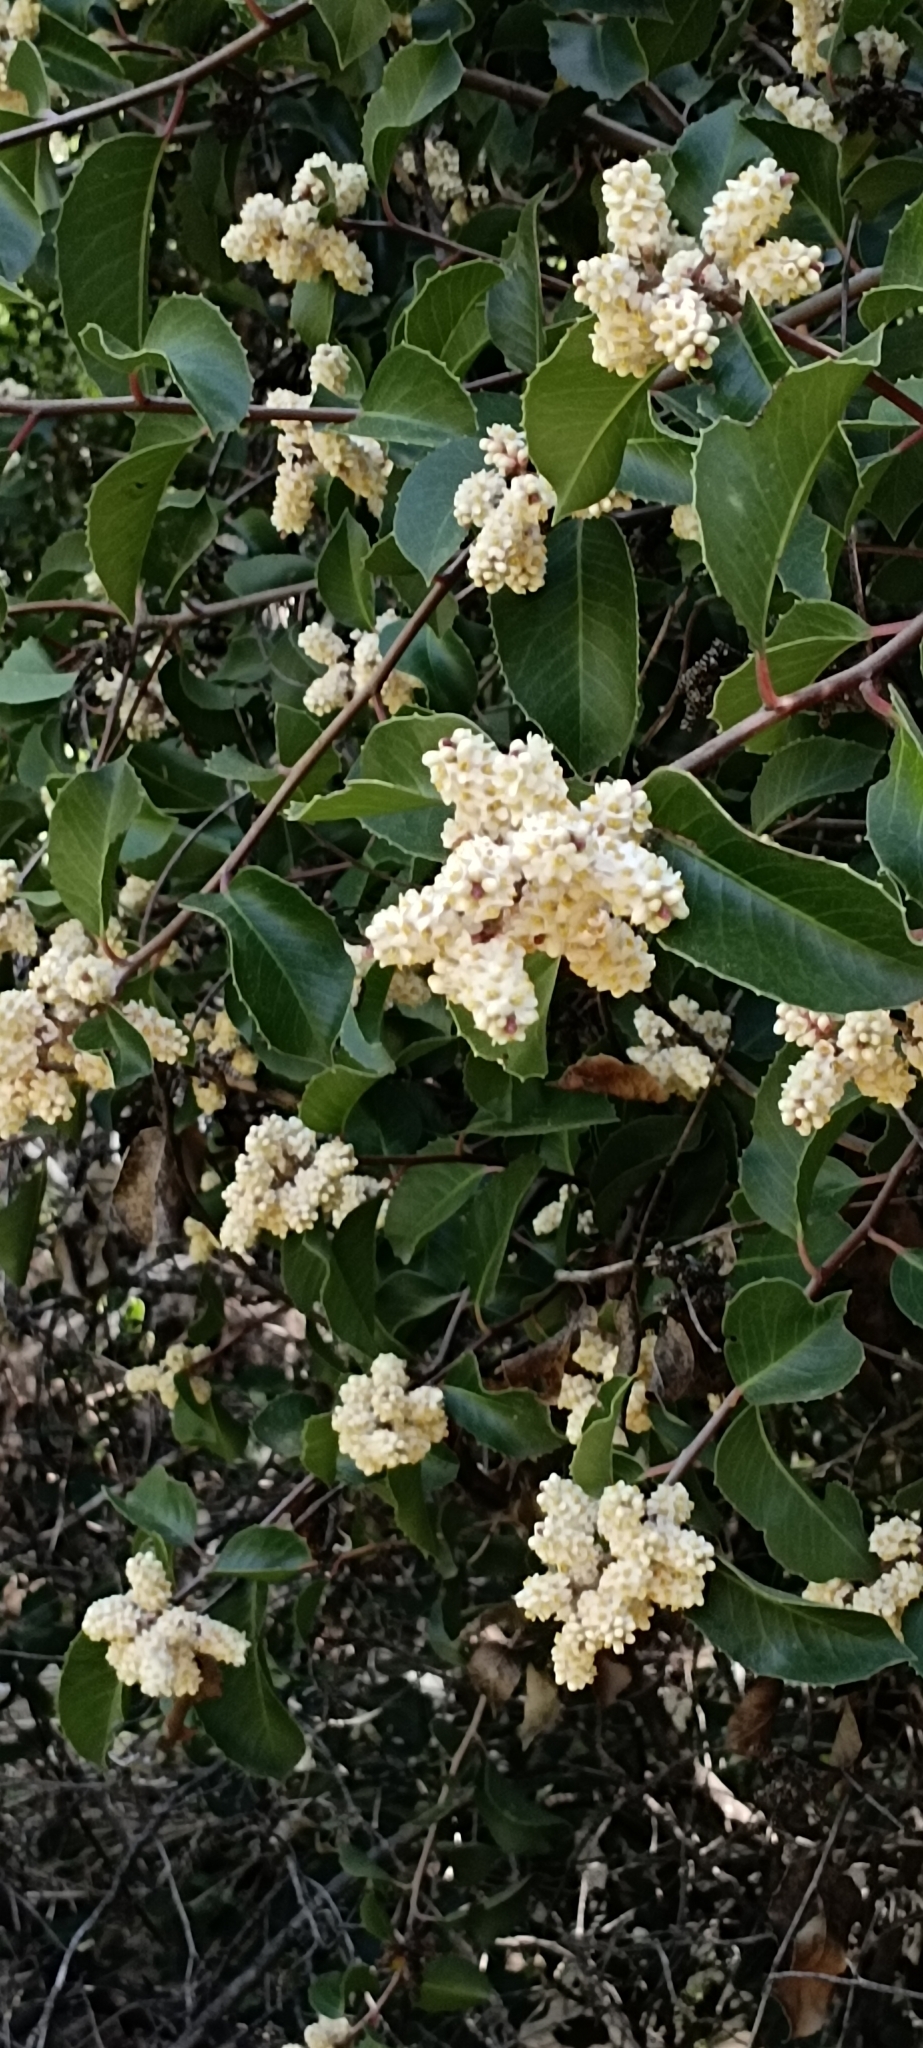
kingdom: Plantae
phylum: Tracheophyta
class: Magnoliopsida
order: Sapindales
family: Anacardiaceae
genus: Rhus
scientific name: Rhus ovata
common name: Sugar sumac
